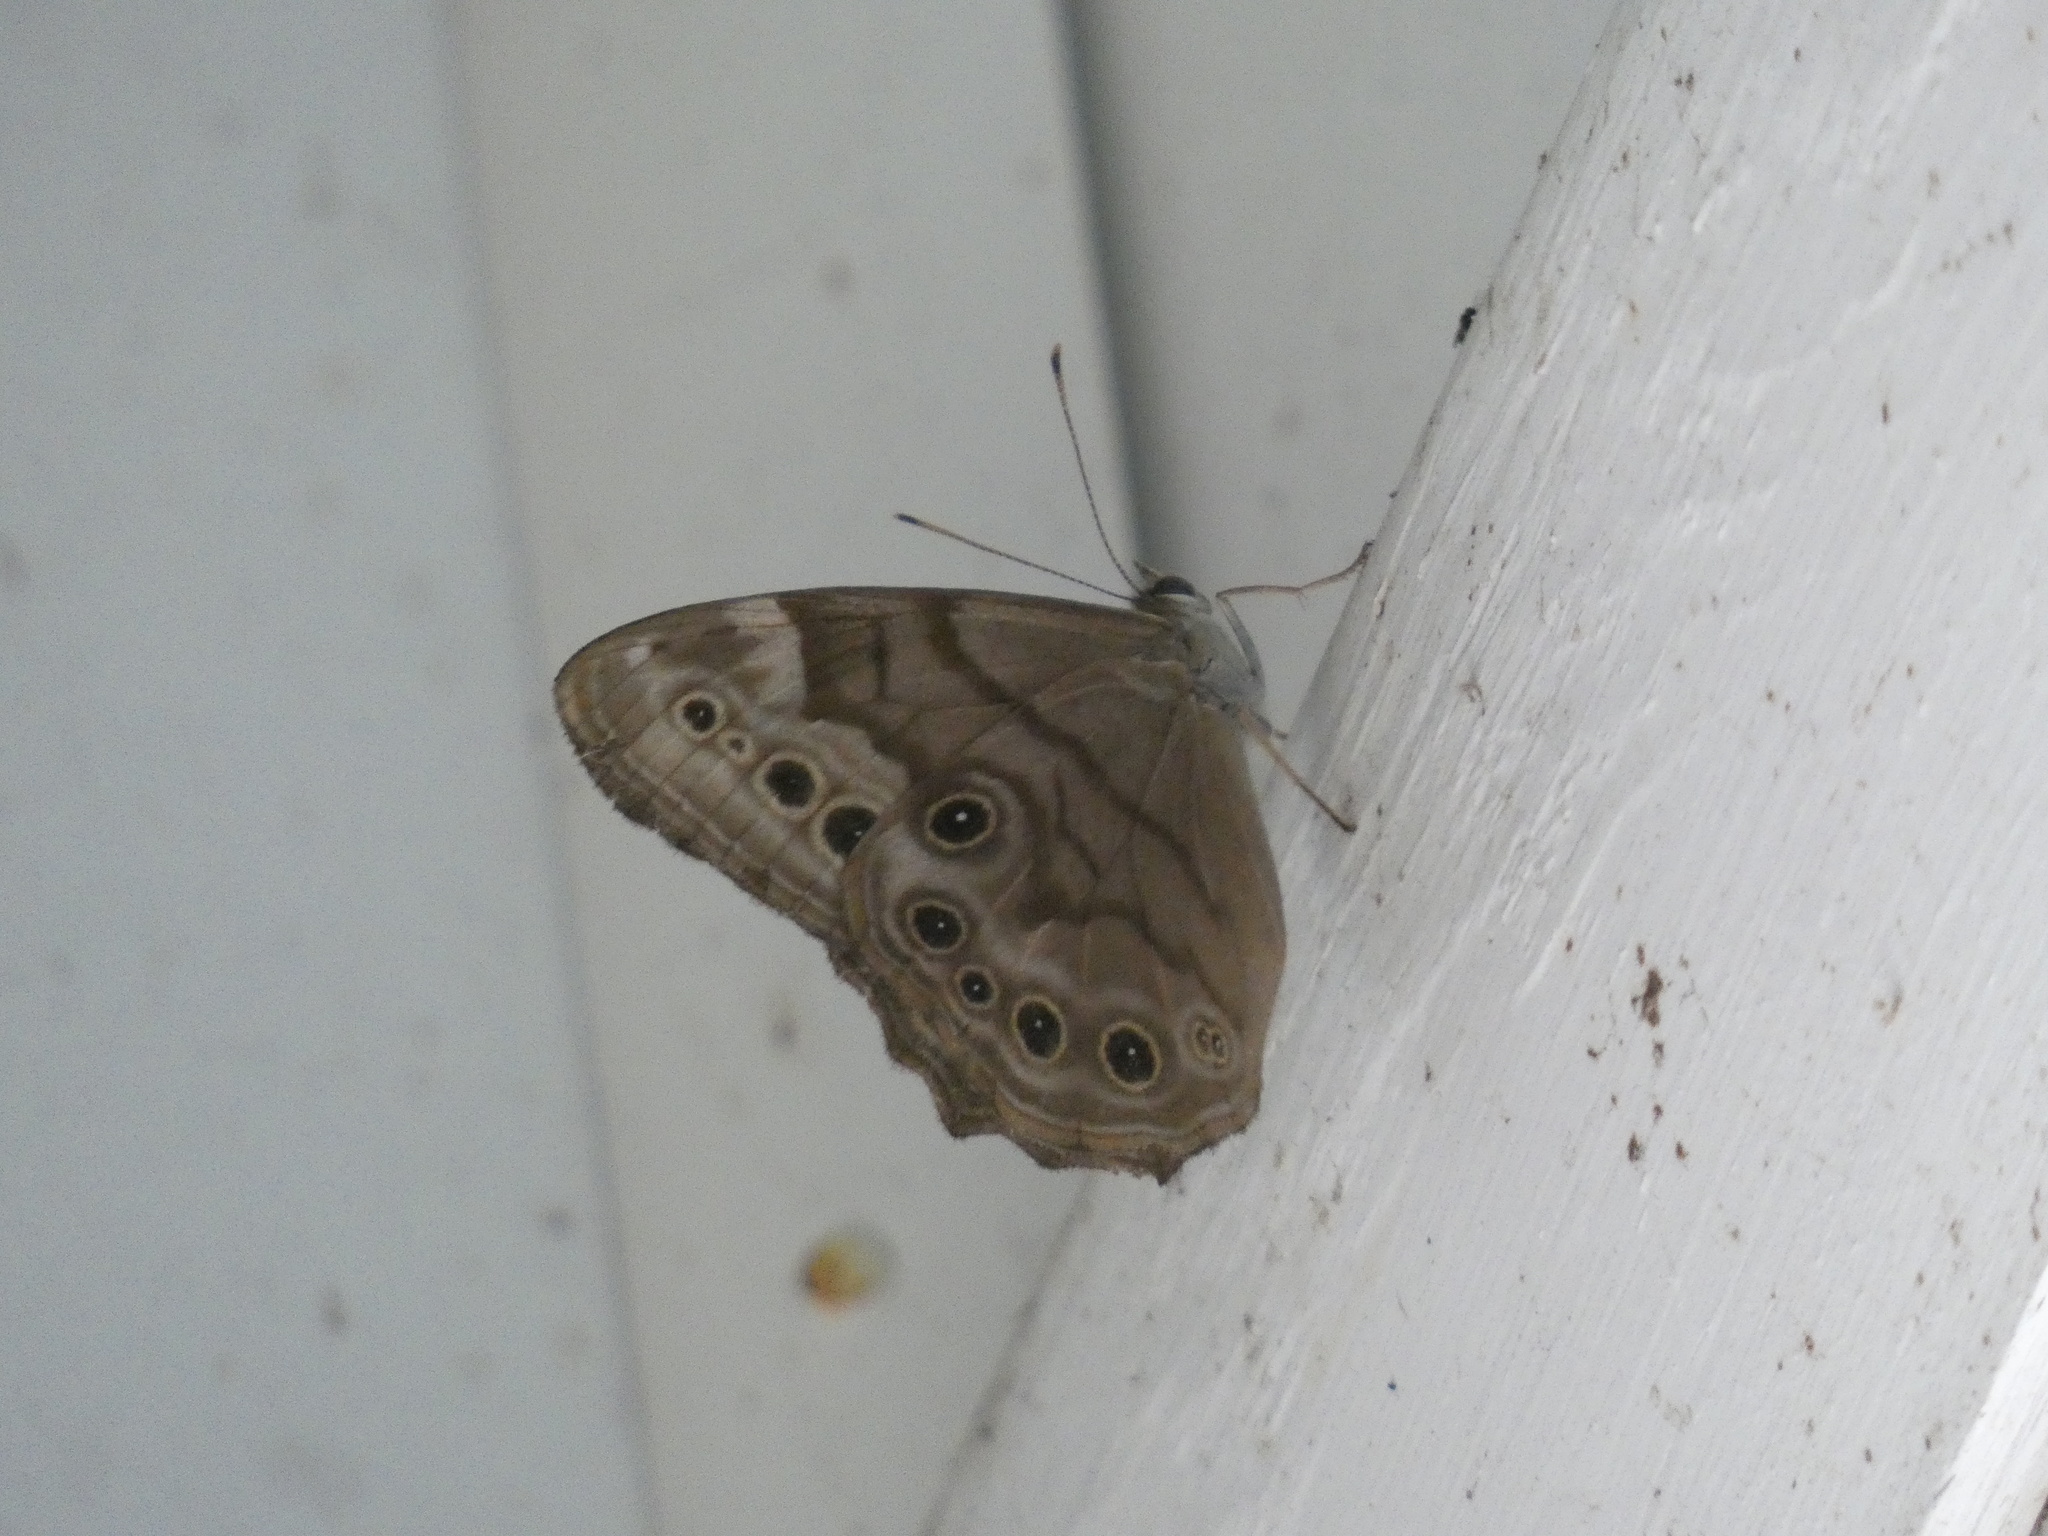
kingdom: Animalia
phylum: Arthropoda
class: Insecta
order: Lepidoptera
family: Nymphalidae
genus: Lethe
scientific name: Lethe anthedon
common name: Northern pearly-eye
